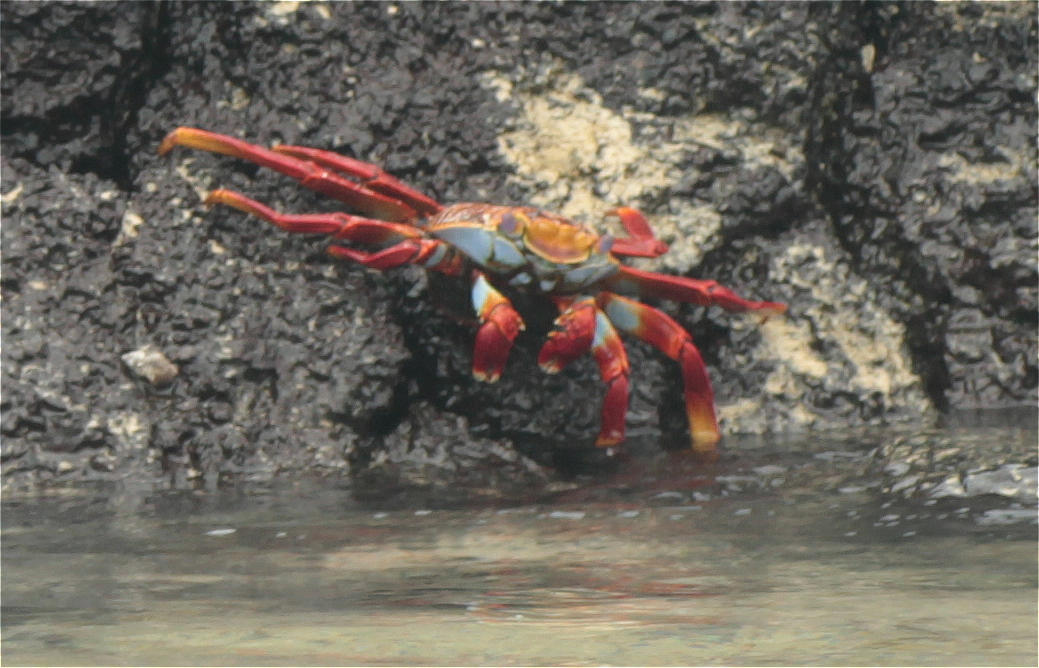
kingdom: Animalia
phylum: Arthropoda
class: Malacostraca
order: Decapoda
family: Grapsidae
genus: Grapsus
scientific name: Grapsus grapsus
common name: Sally lightfoot
